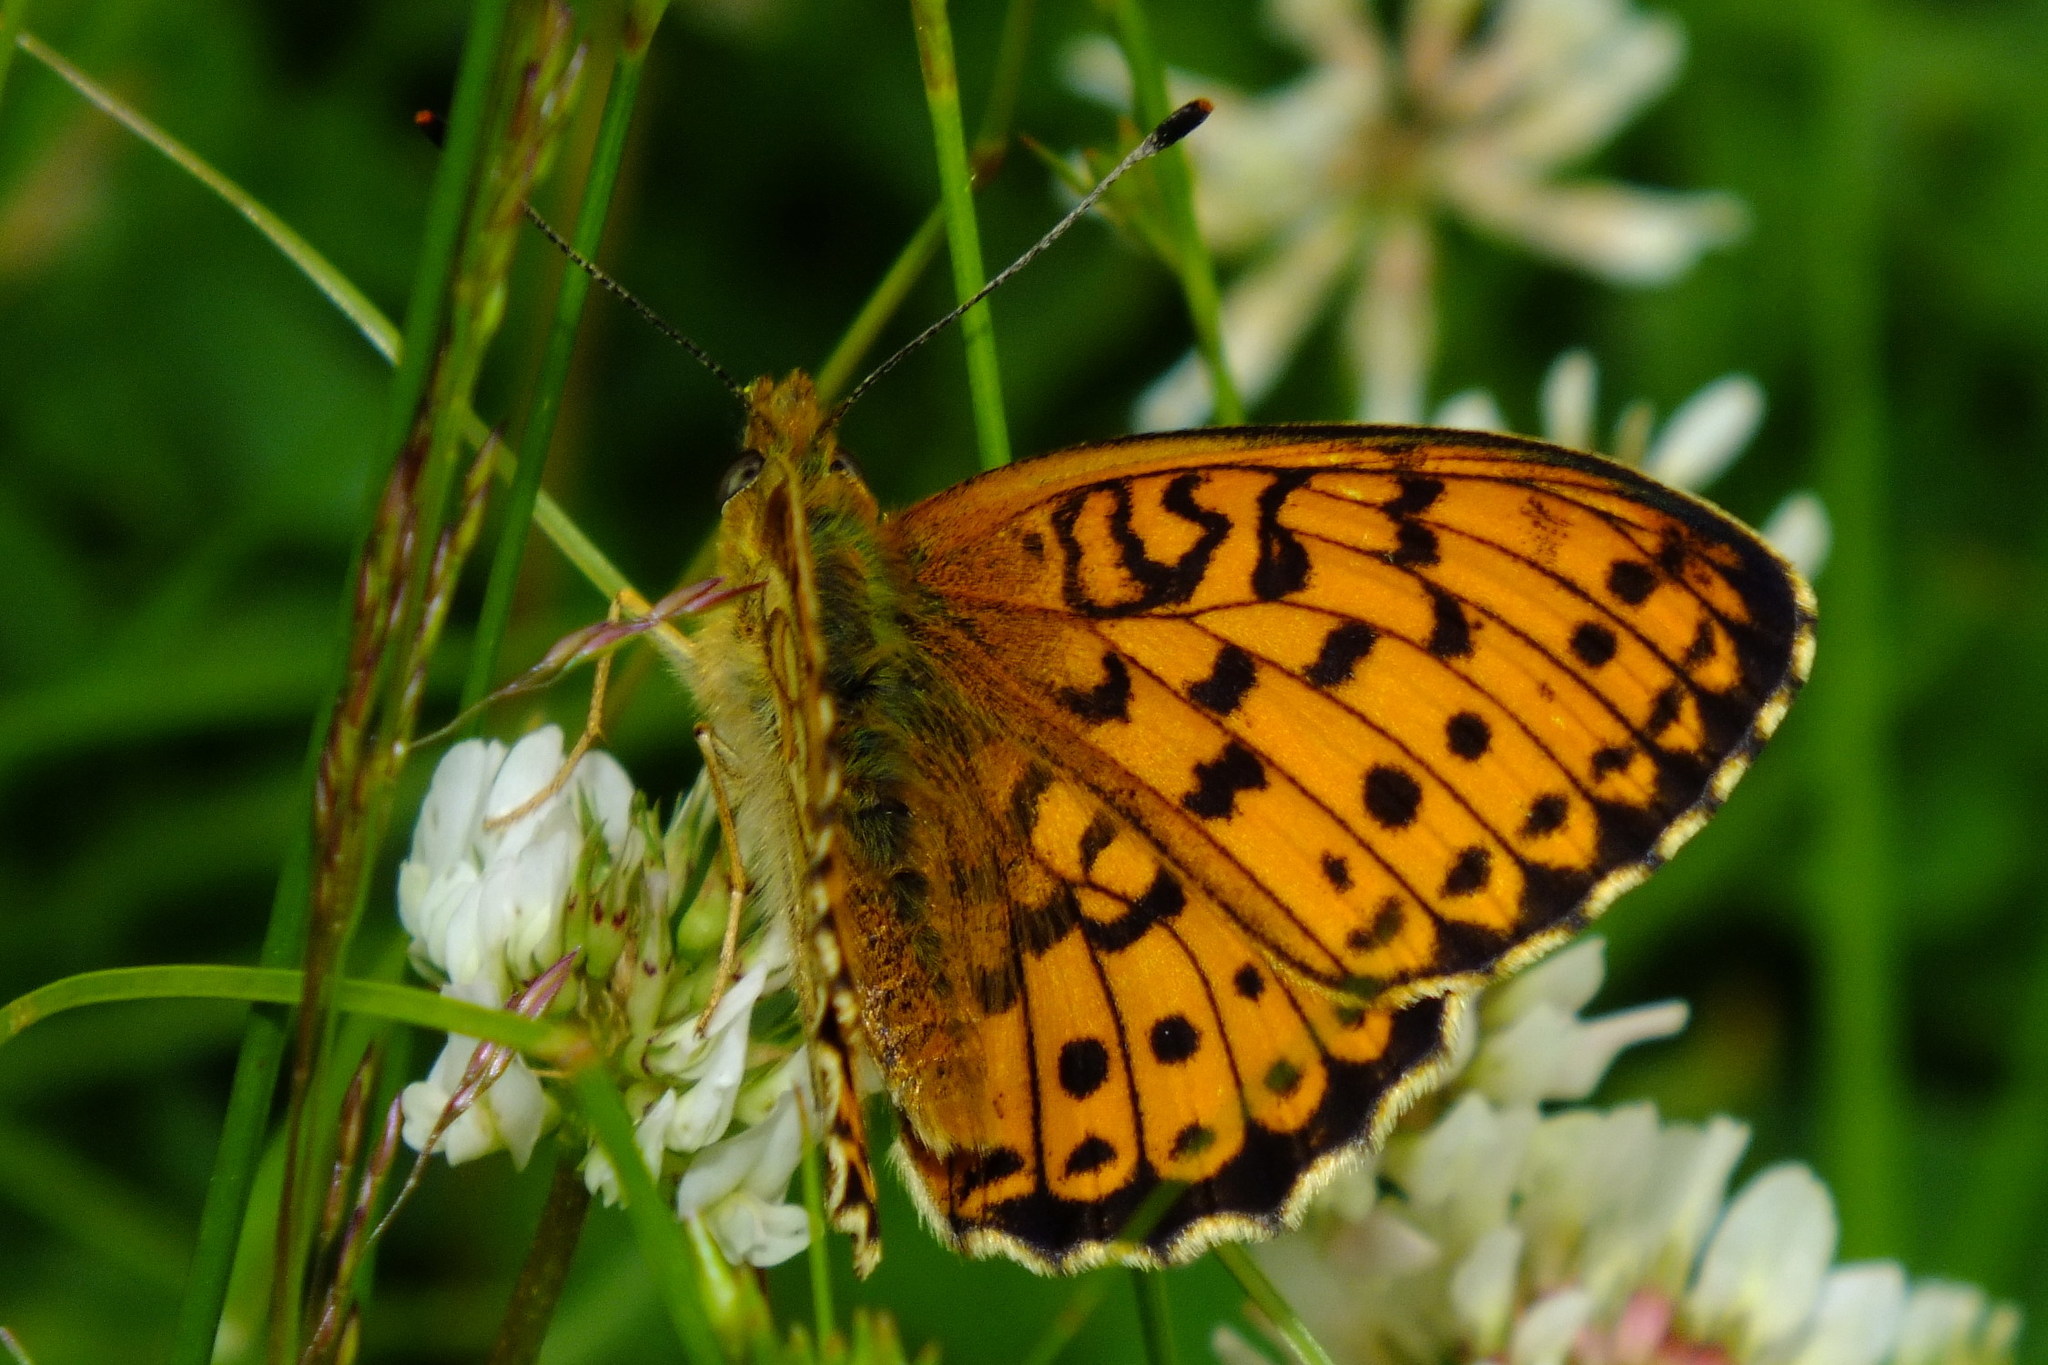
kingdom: Animalia
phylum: Arthropoda
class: Insecta
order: Lepidoptera
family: Nymphalidae
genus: Brenthis
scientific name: Brenthis ino
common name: Lesser marbled fritillary
